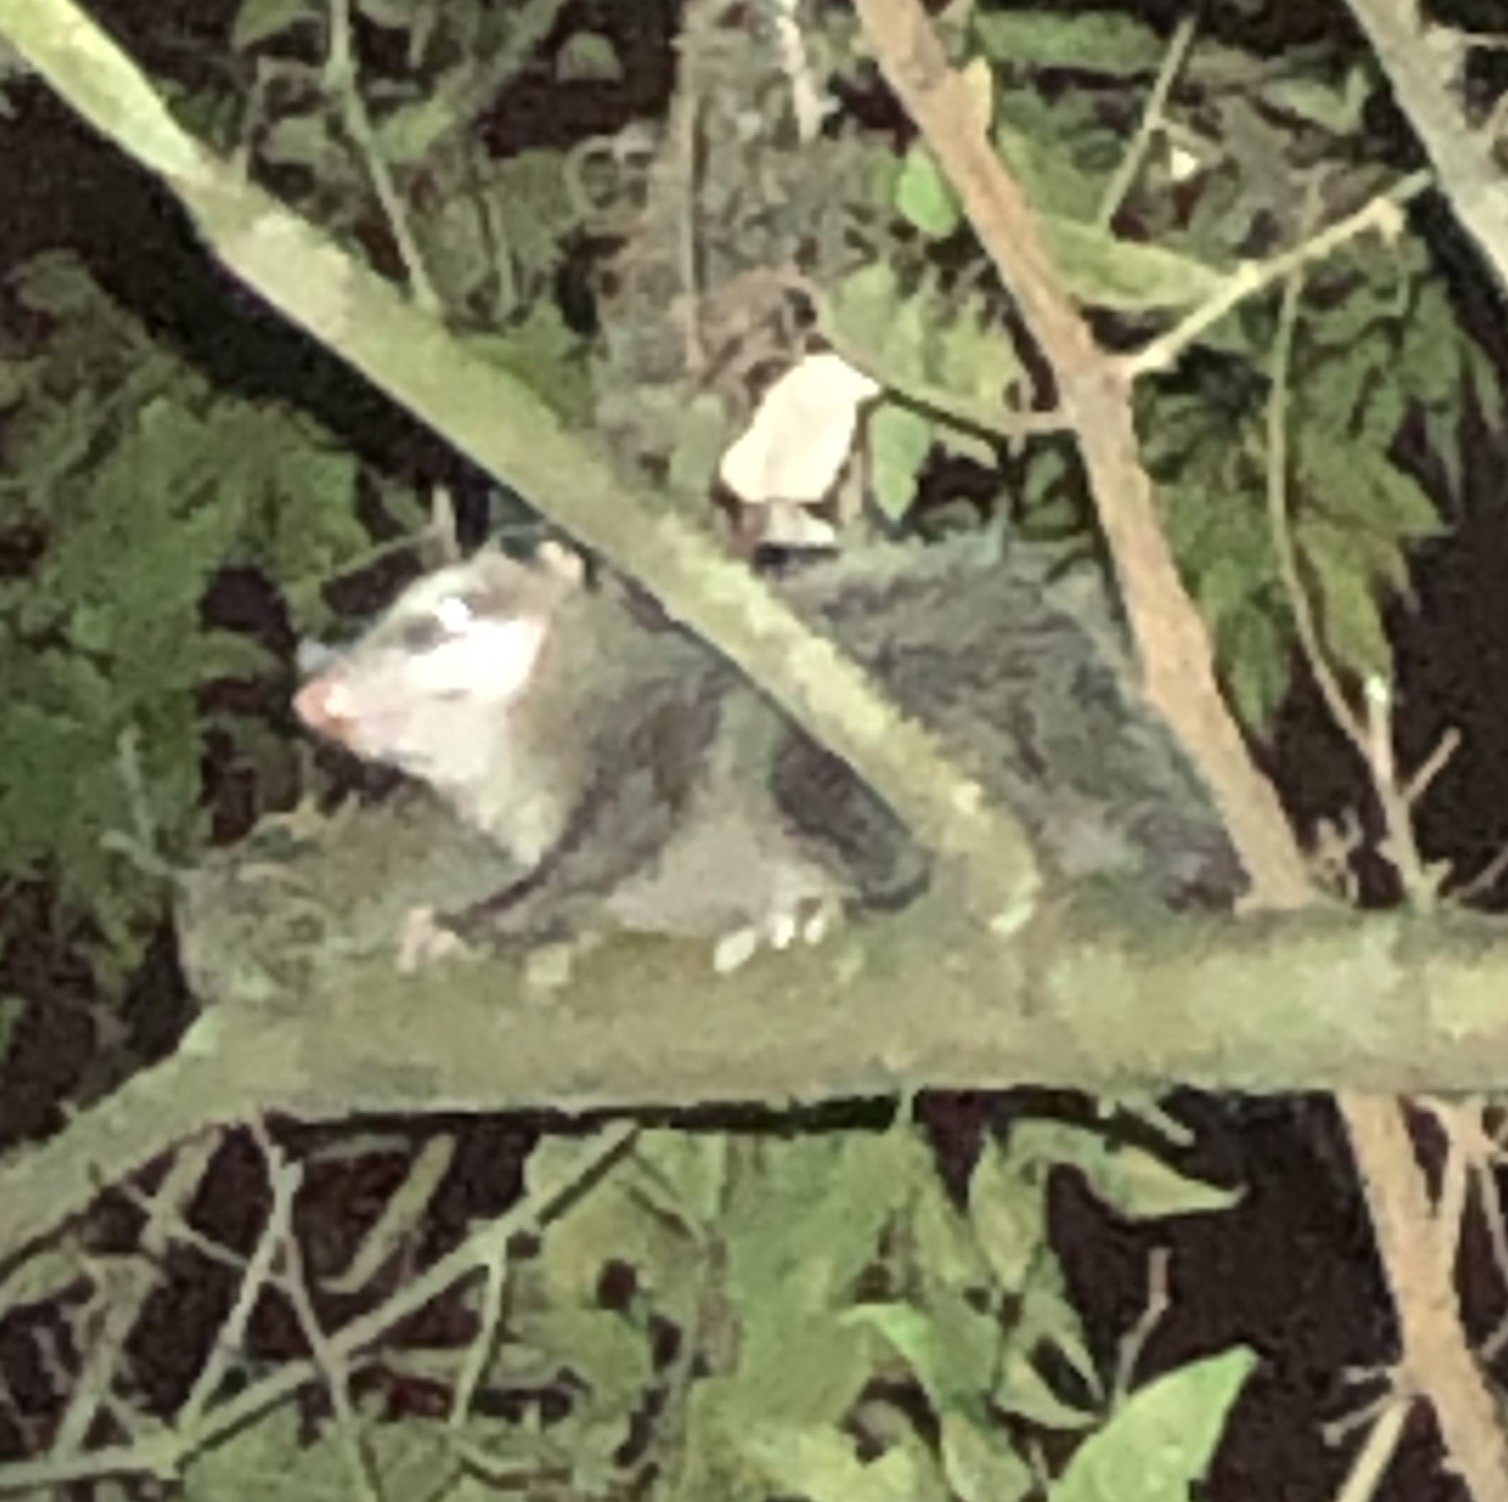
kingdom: Animalia
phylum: Chordata
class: Mammalia
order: Didelphimorphia
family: Didelphidae
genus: Didelphis
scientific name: Didelphis virginiana
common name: Virginia opossum
